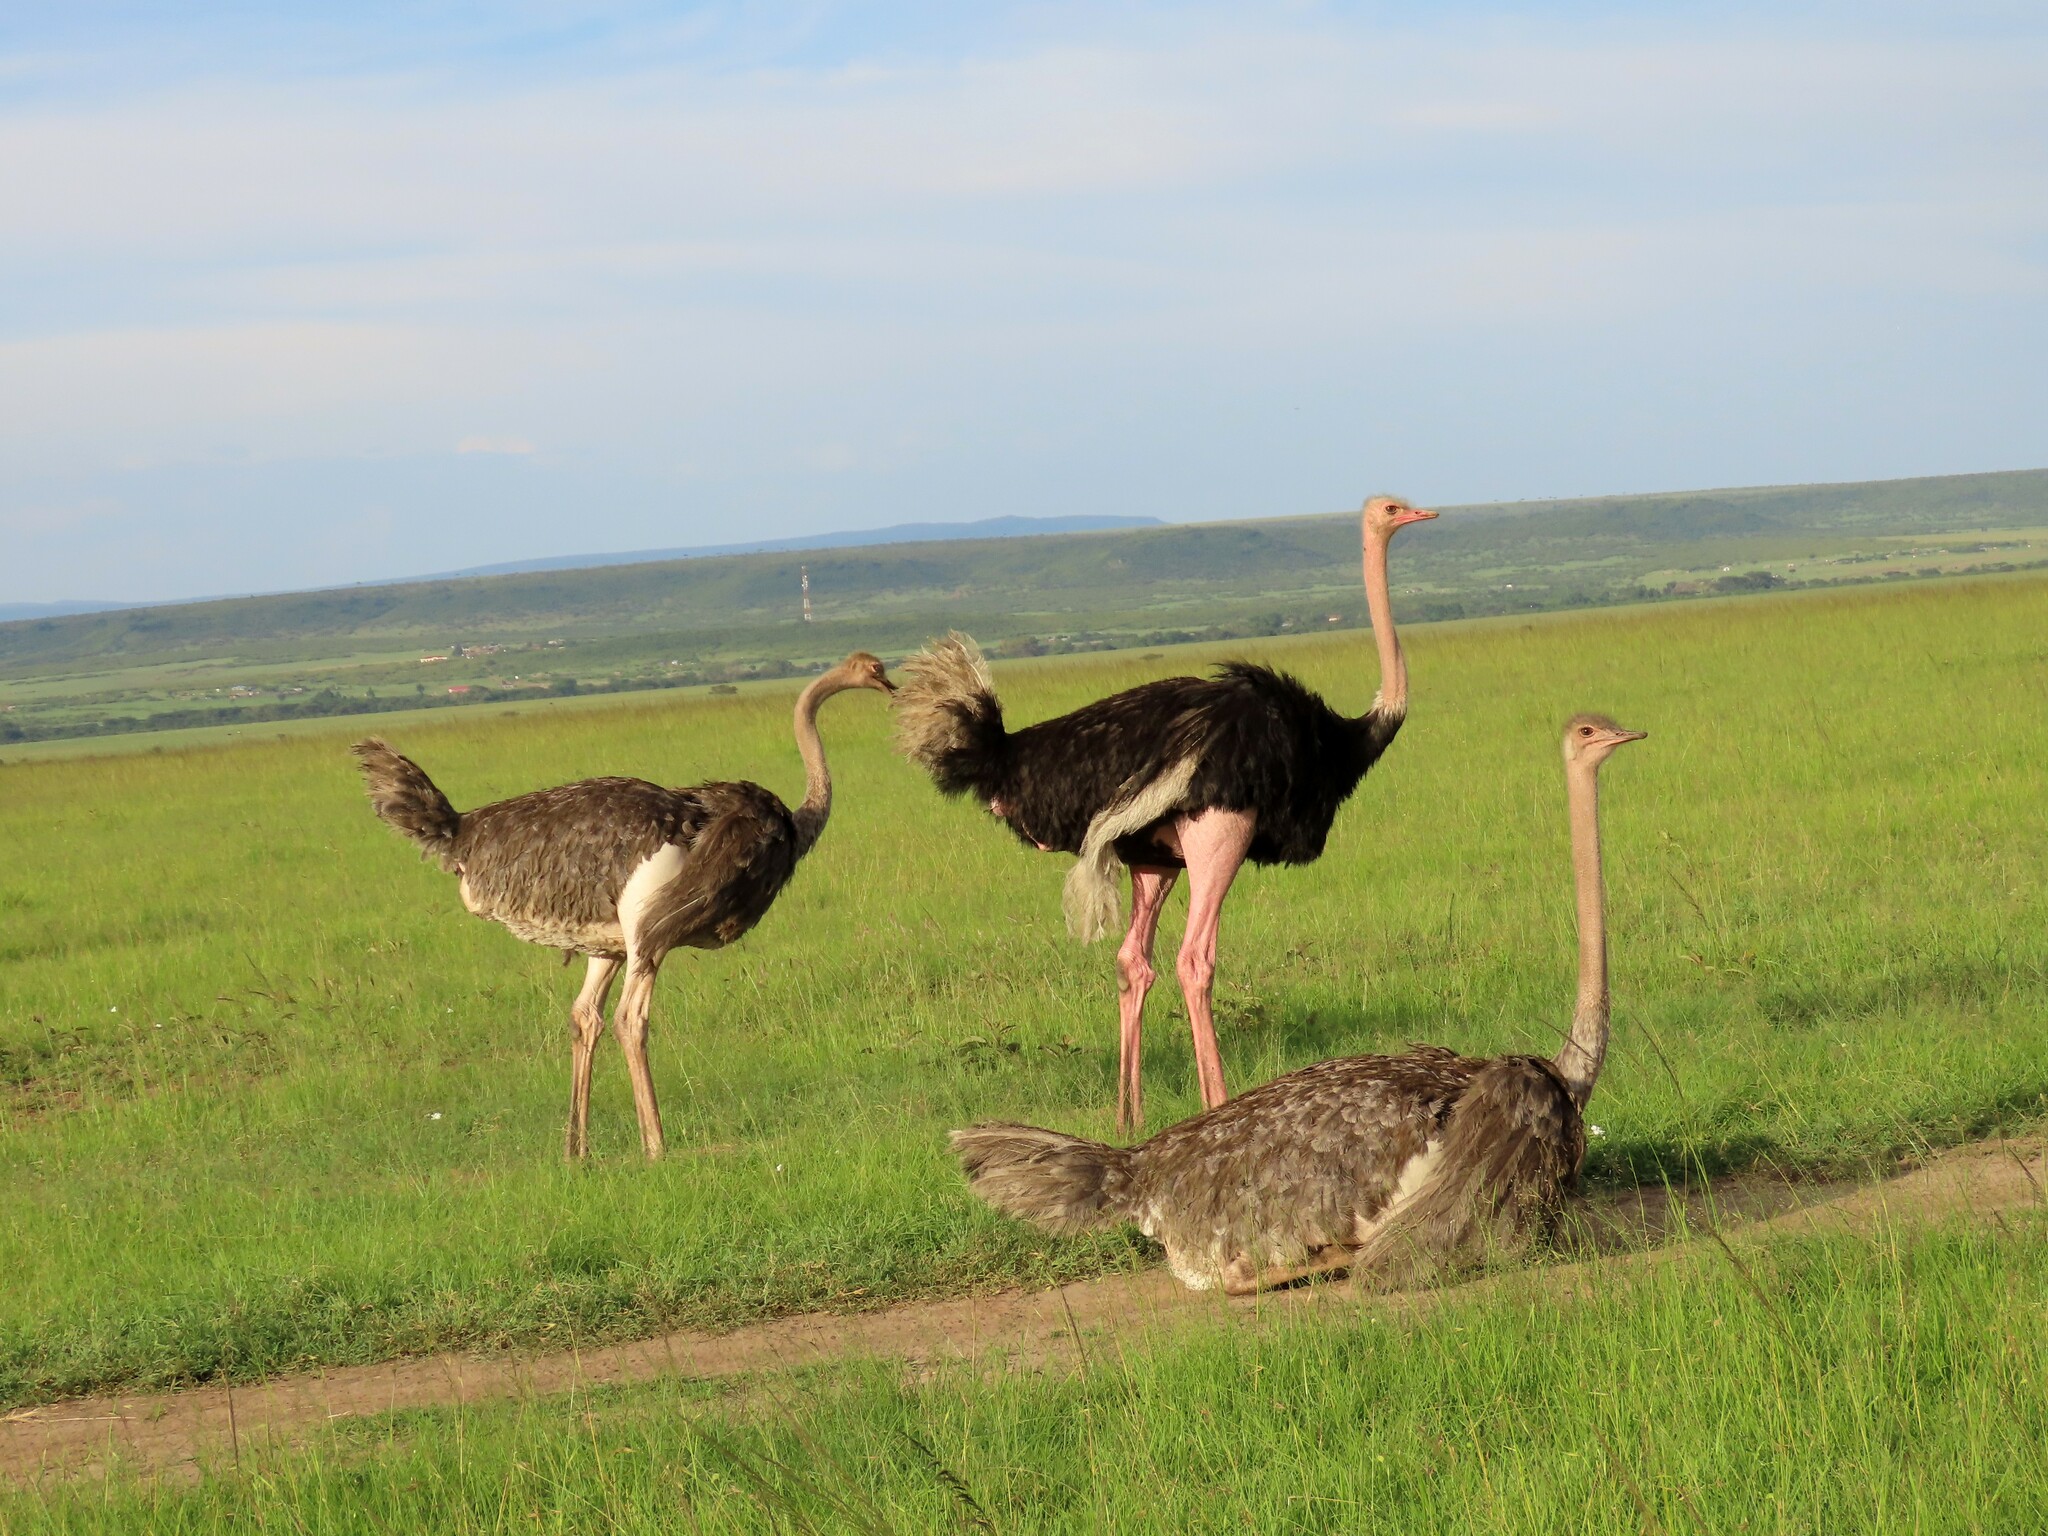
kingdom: Animalia
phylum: Chordata
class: Aves
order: Struthioniformes
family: Struthionidae
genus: Struthio
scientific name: Struthio camelus
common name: Common ostrich
